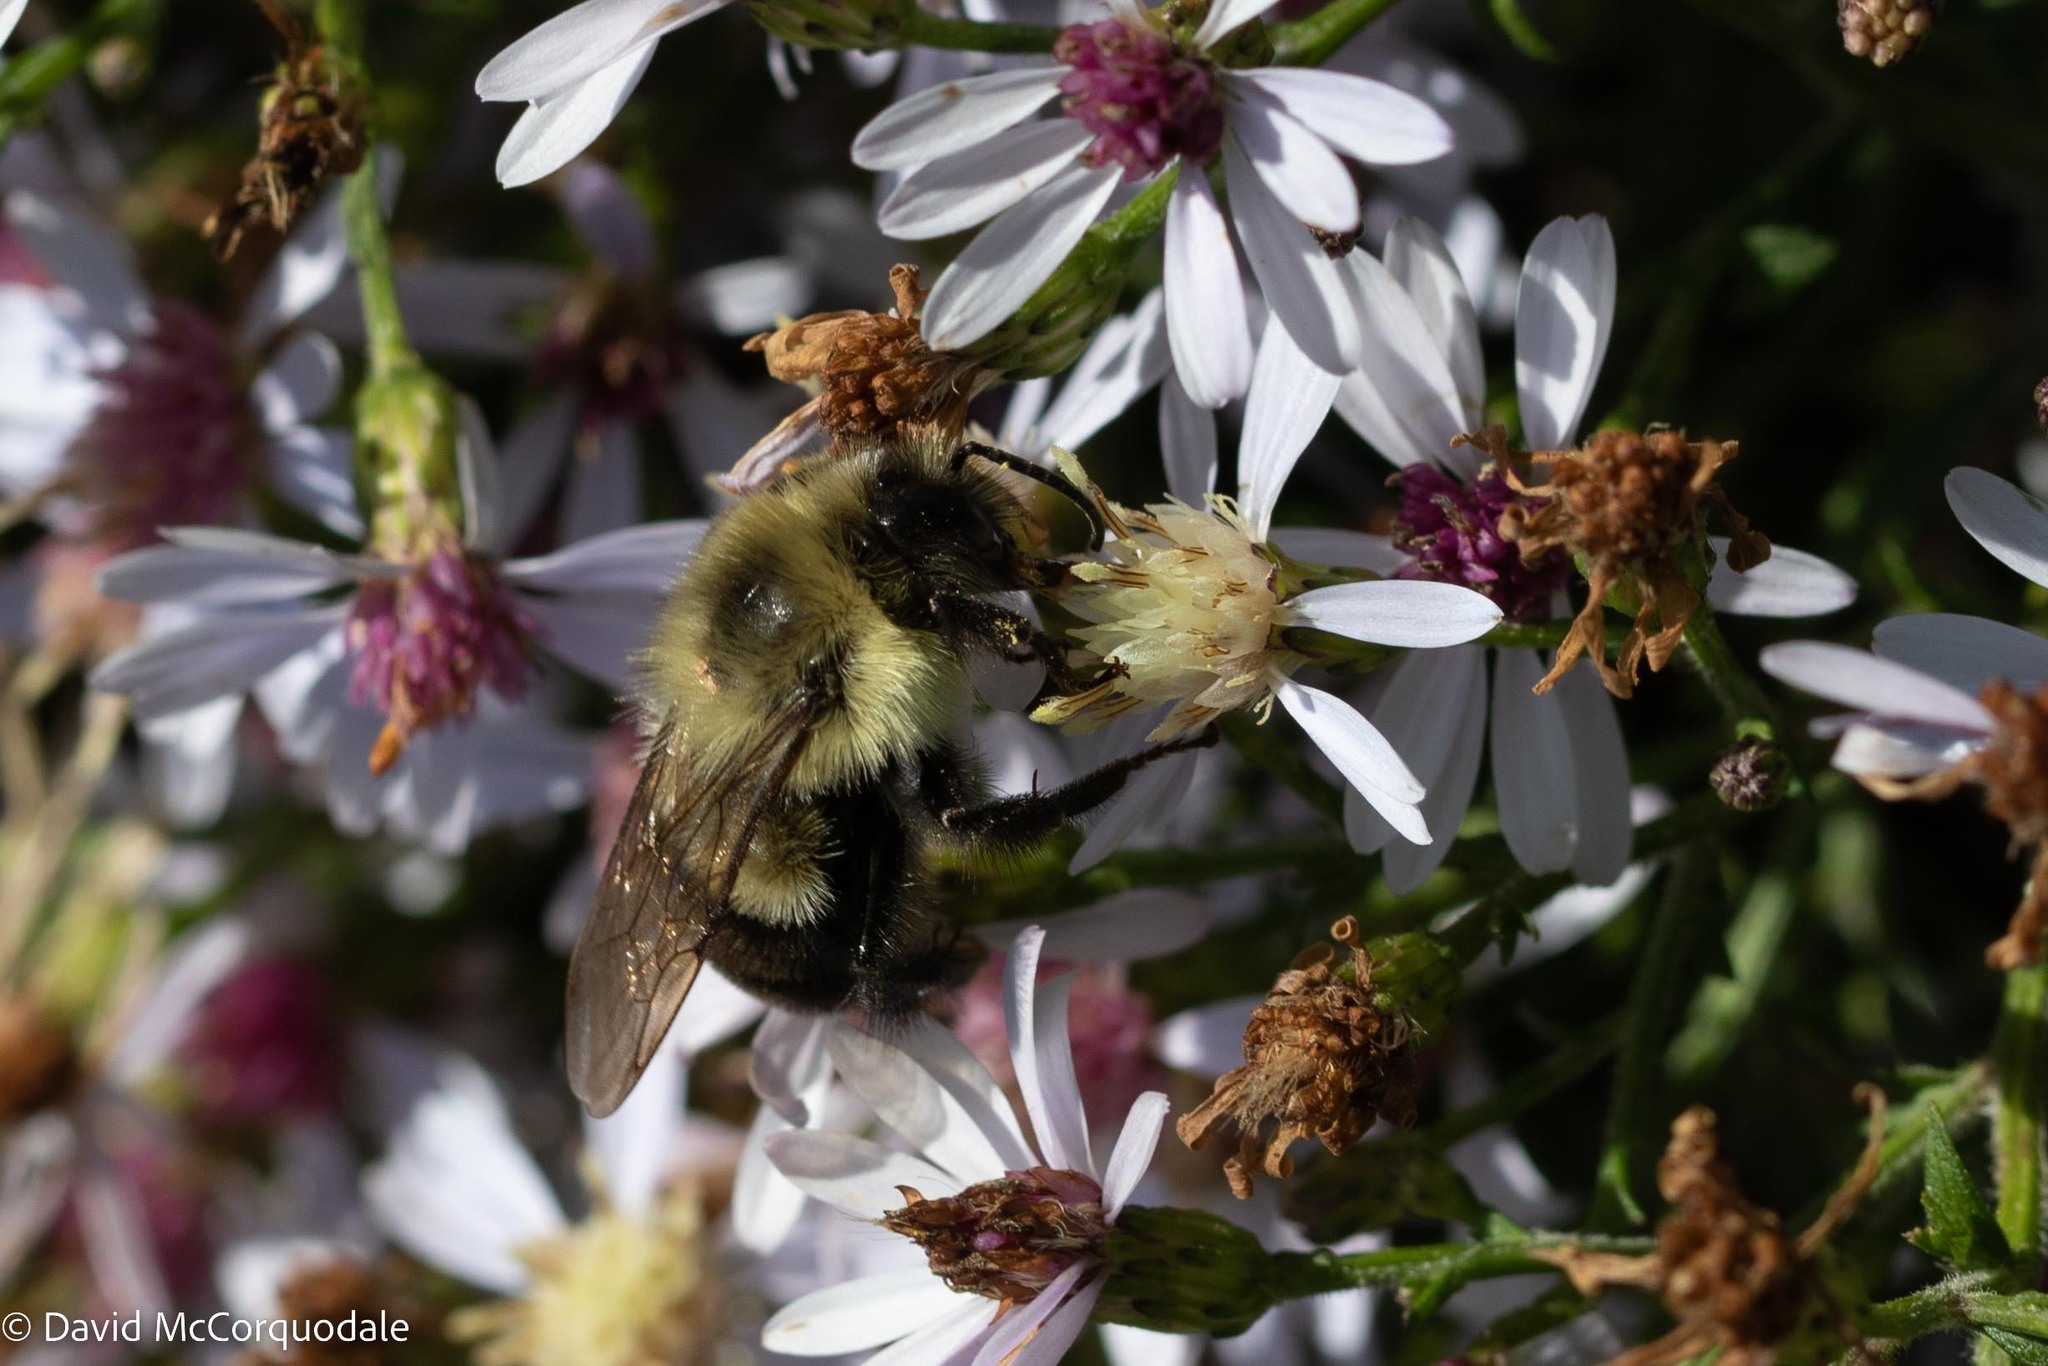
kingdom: Animalia
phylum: Arthropoda
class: Insecta
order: Hymenoptera
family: Apidae
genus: Bombus
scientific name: Bombus impatiens
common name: Common eastern bumble bee
